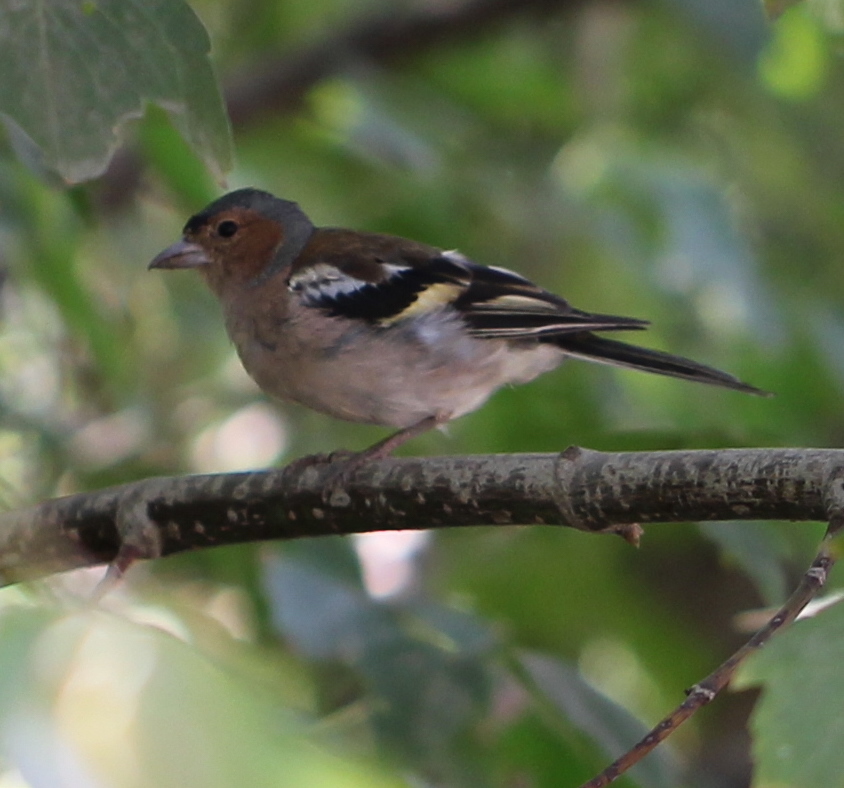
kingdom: Animalia
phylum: Chordata
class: Aves
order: Passeriformes
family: Fringillidae
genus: Fringilla
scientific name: Fringilla coelebs
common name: Common chaffinch
